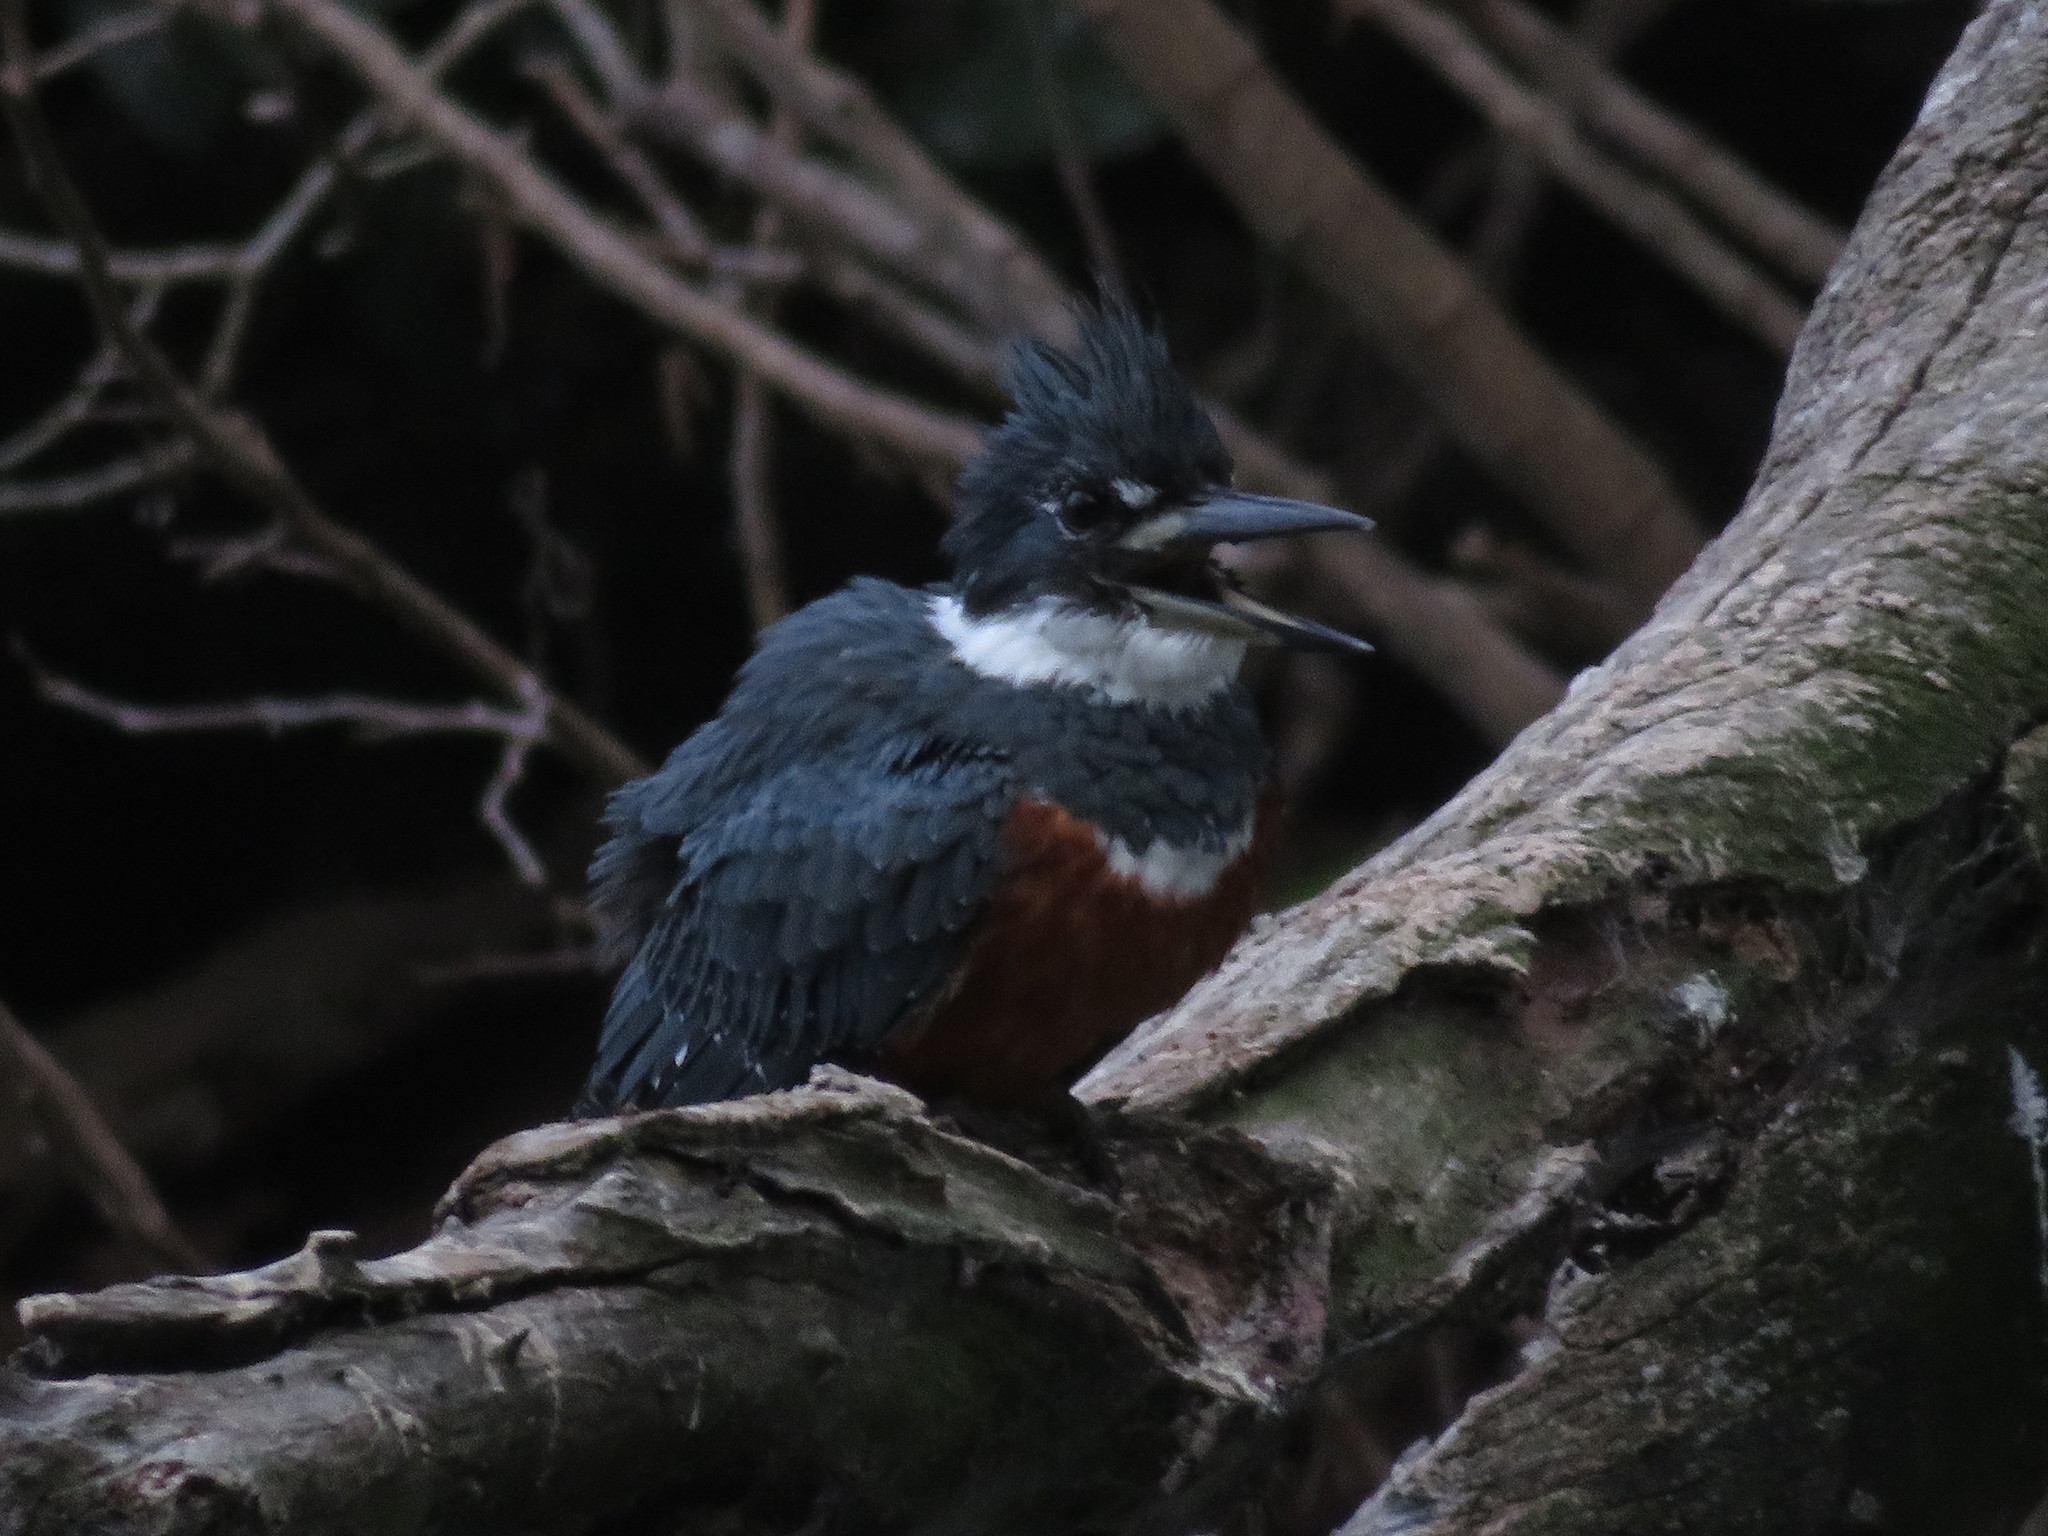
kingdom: Animalia
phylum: Chordata
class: Aves
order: Coraciiformes
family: Alcedinidae
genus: Megaceryle
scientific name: Megaceryle torquata
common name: Ringed kingfisher
